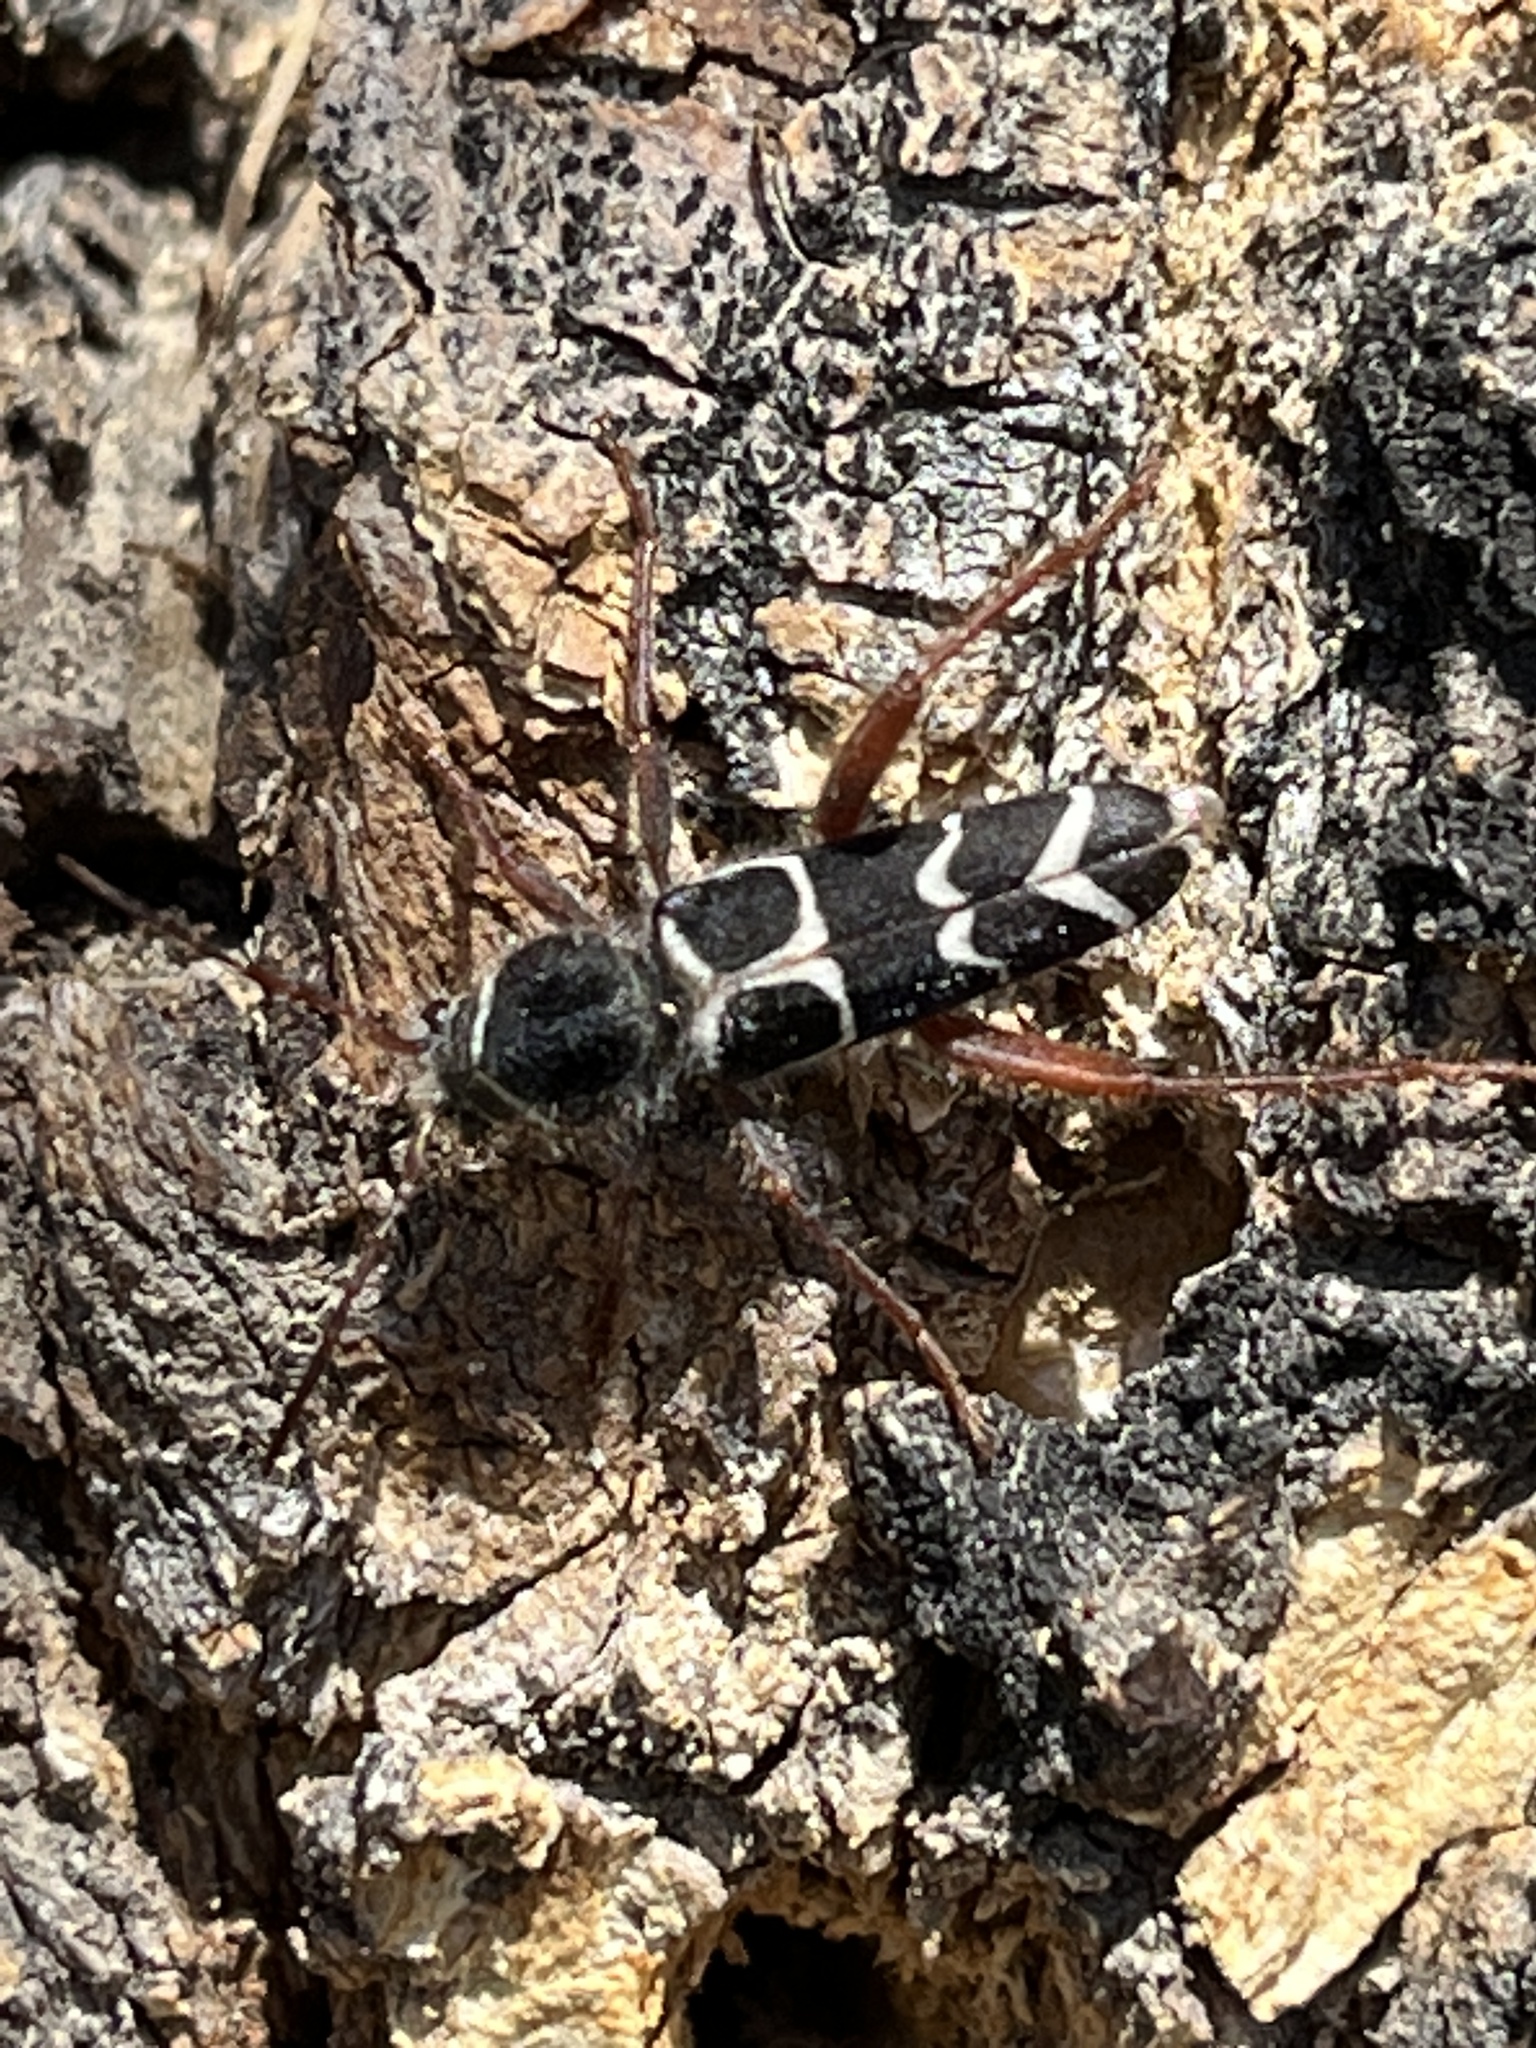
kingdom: Animalia
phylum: Arthropoda
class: Insecta
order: Coleoptera
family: Cerambycidae
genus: Neoclytus
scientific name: Neoclytus caprea
